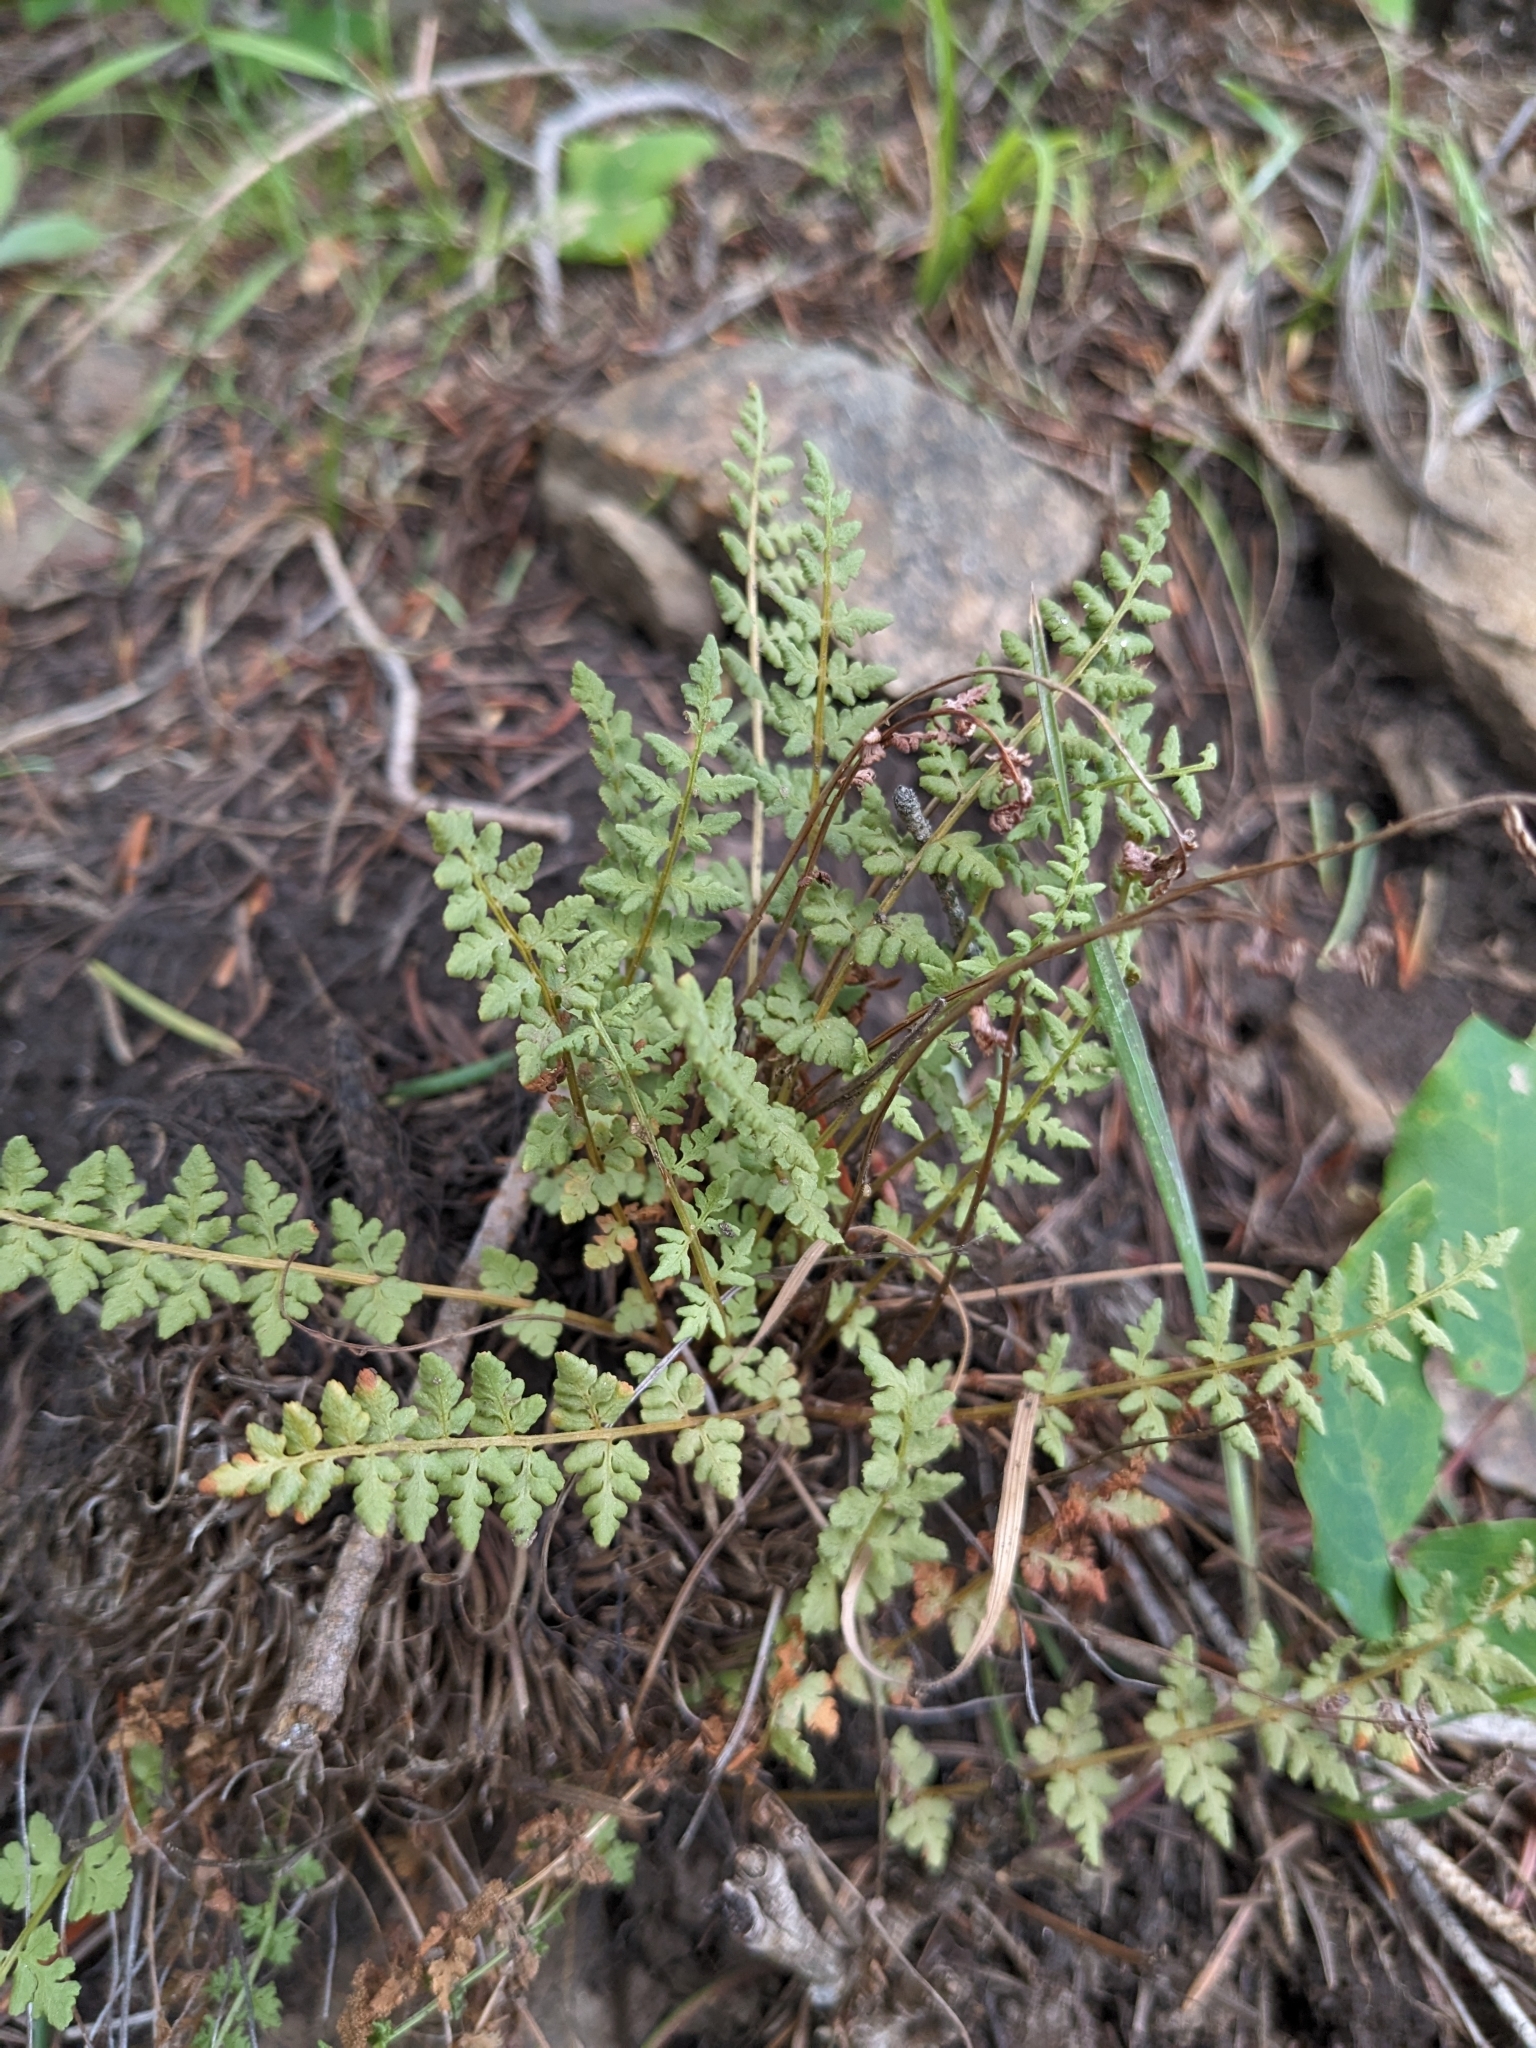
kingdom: Plantae
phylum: Tracheophyta
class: Polypodiopsida
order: Polypodiales
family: Woodsiaceae
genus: Physematium
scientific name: Physematium oreganum
